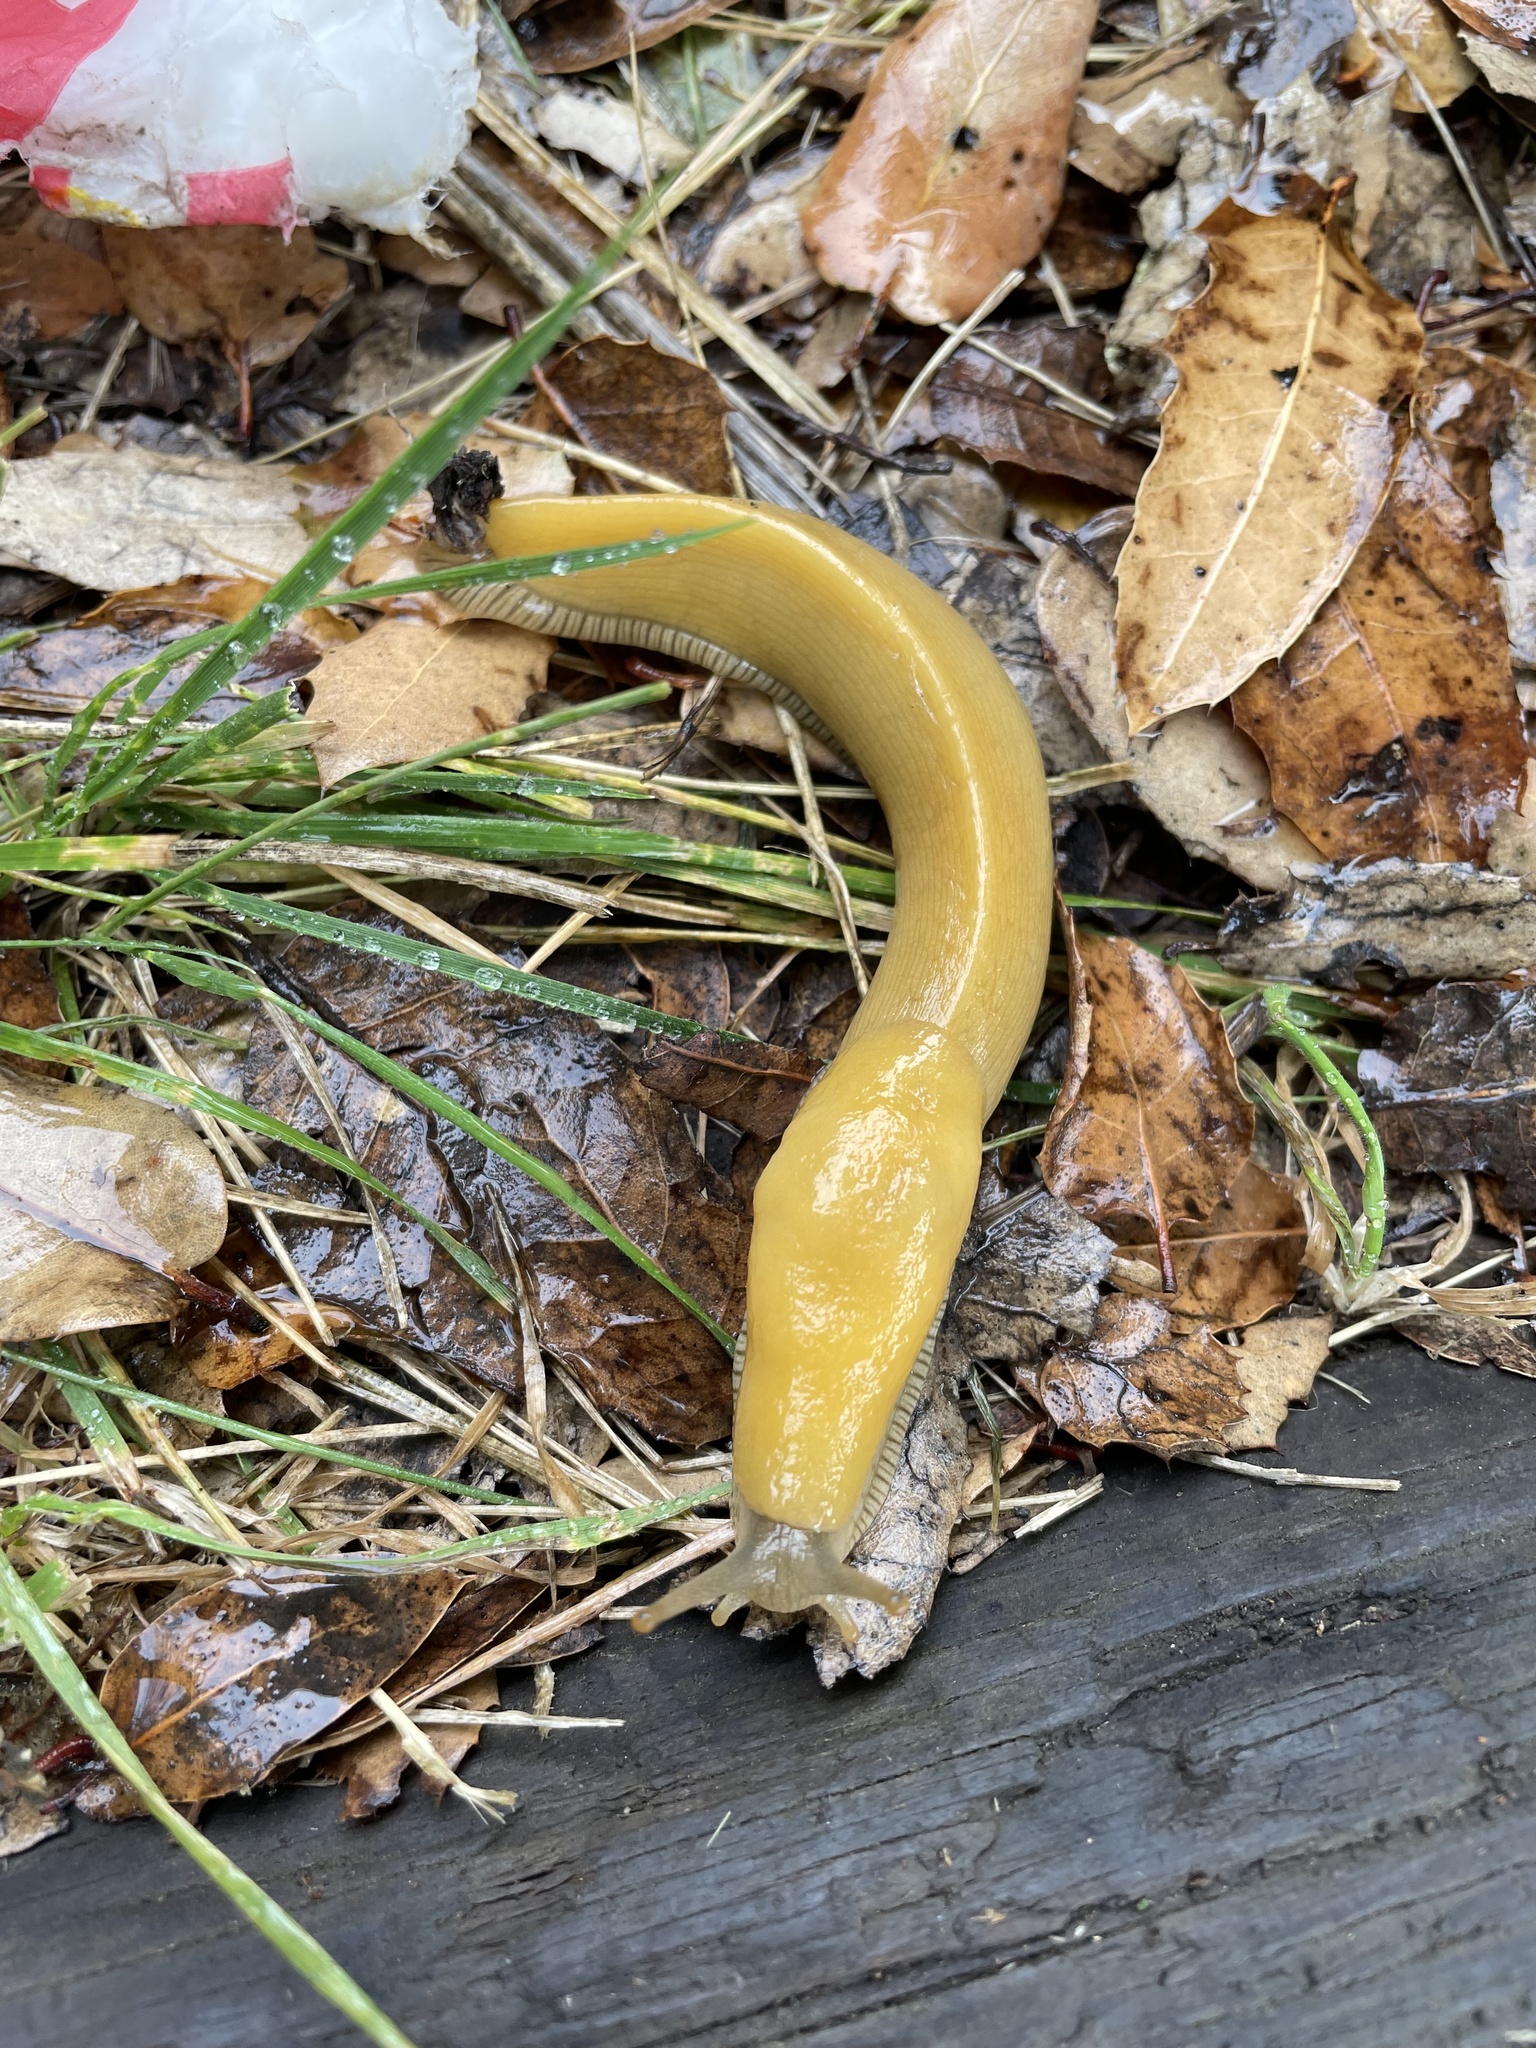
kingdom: Animalia
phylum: Mollusca
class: Gastropoda
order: Stylommatophora
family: Ariolimacidae
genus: Ariolimax
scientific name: Ariolimax californicus
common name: California banana slug
